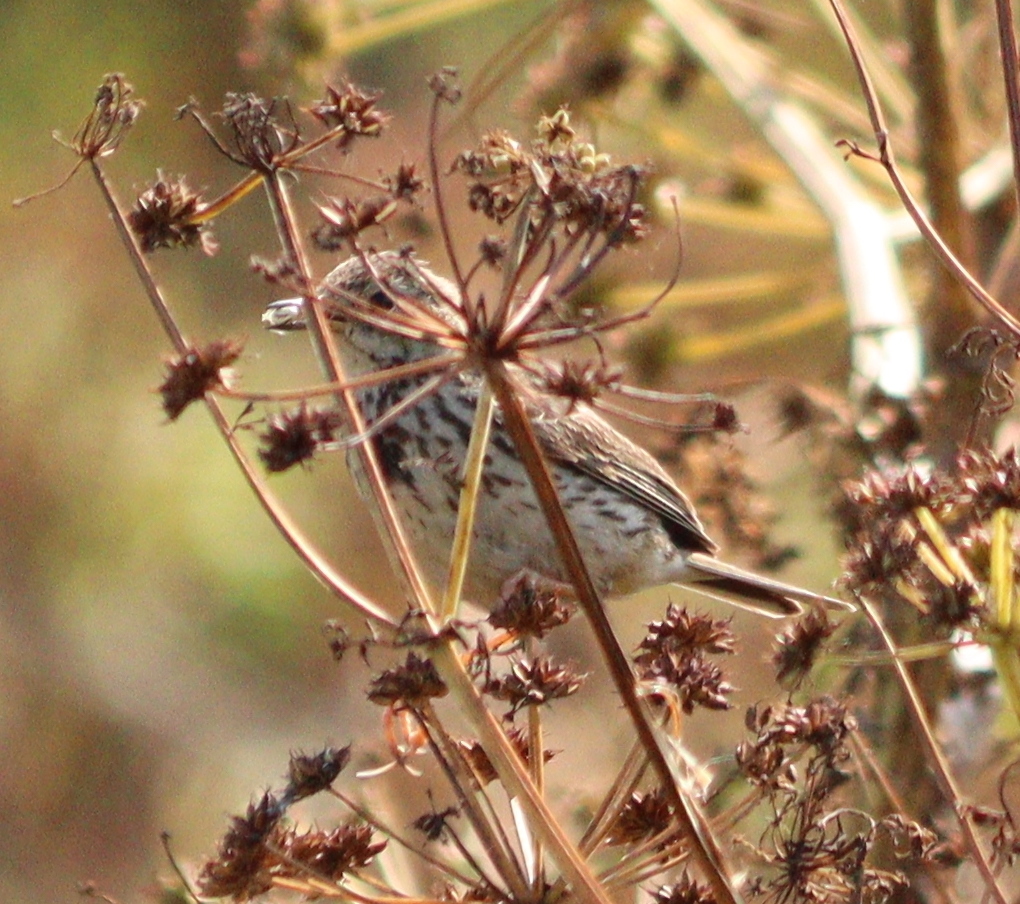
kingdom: Animalia
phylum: Chordata
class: Aves
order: Passeriformes
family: Motacillidae
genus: Anthus
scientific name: Anthus pratensis
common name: Meadow pipit
